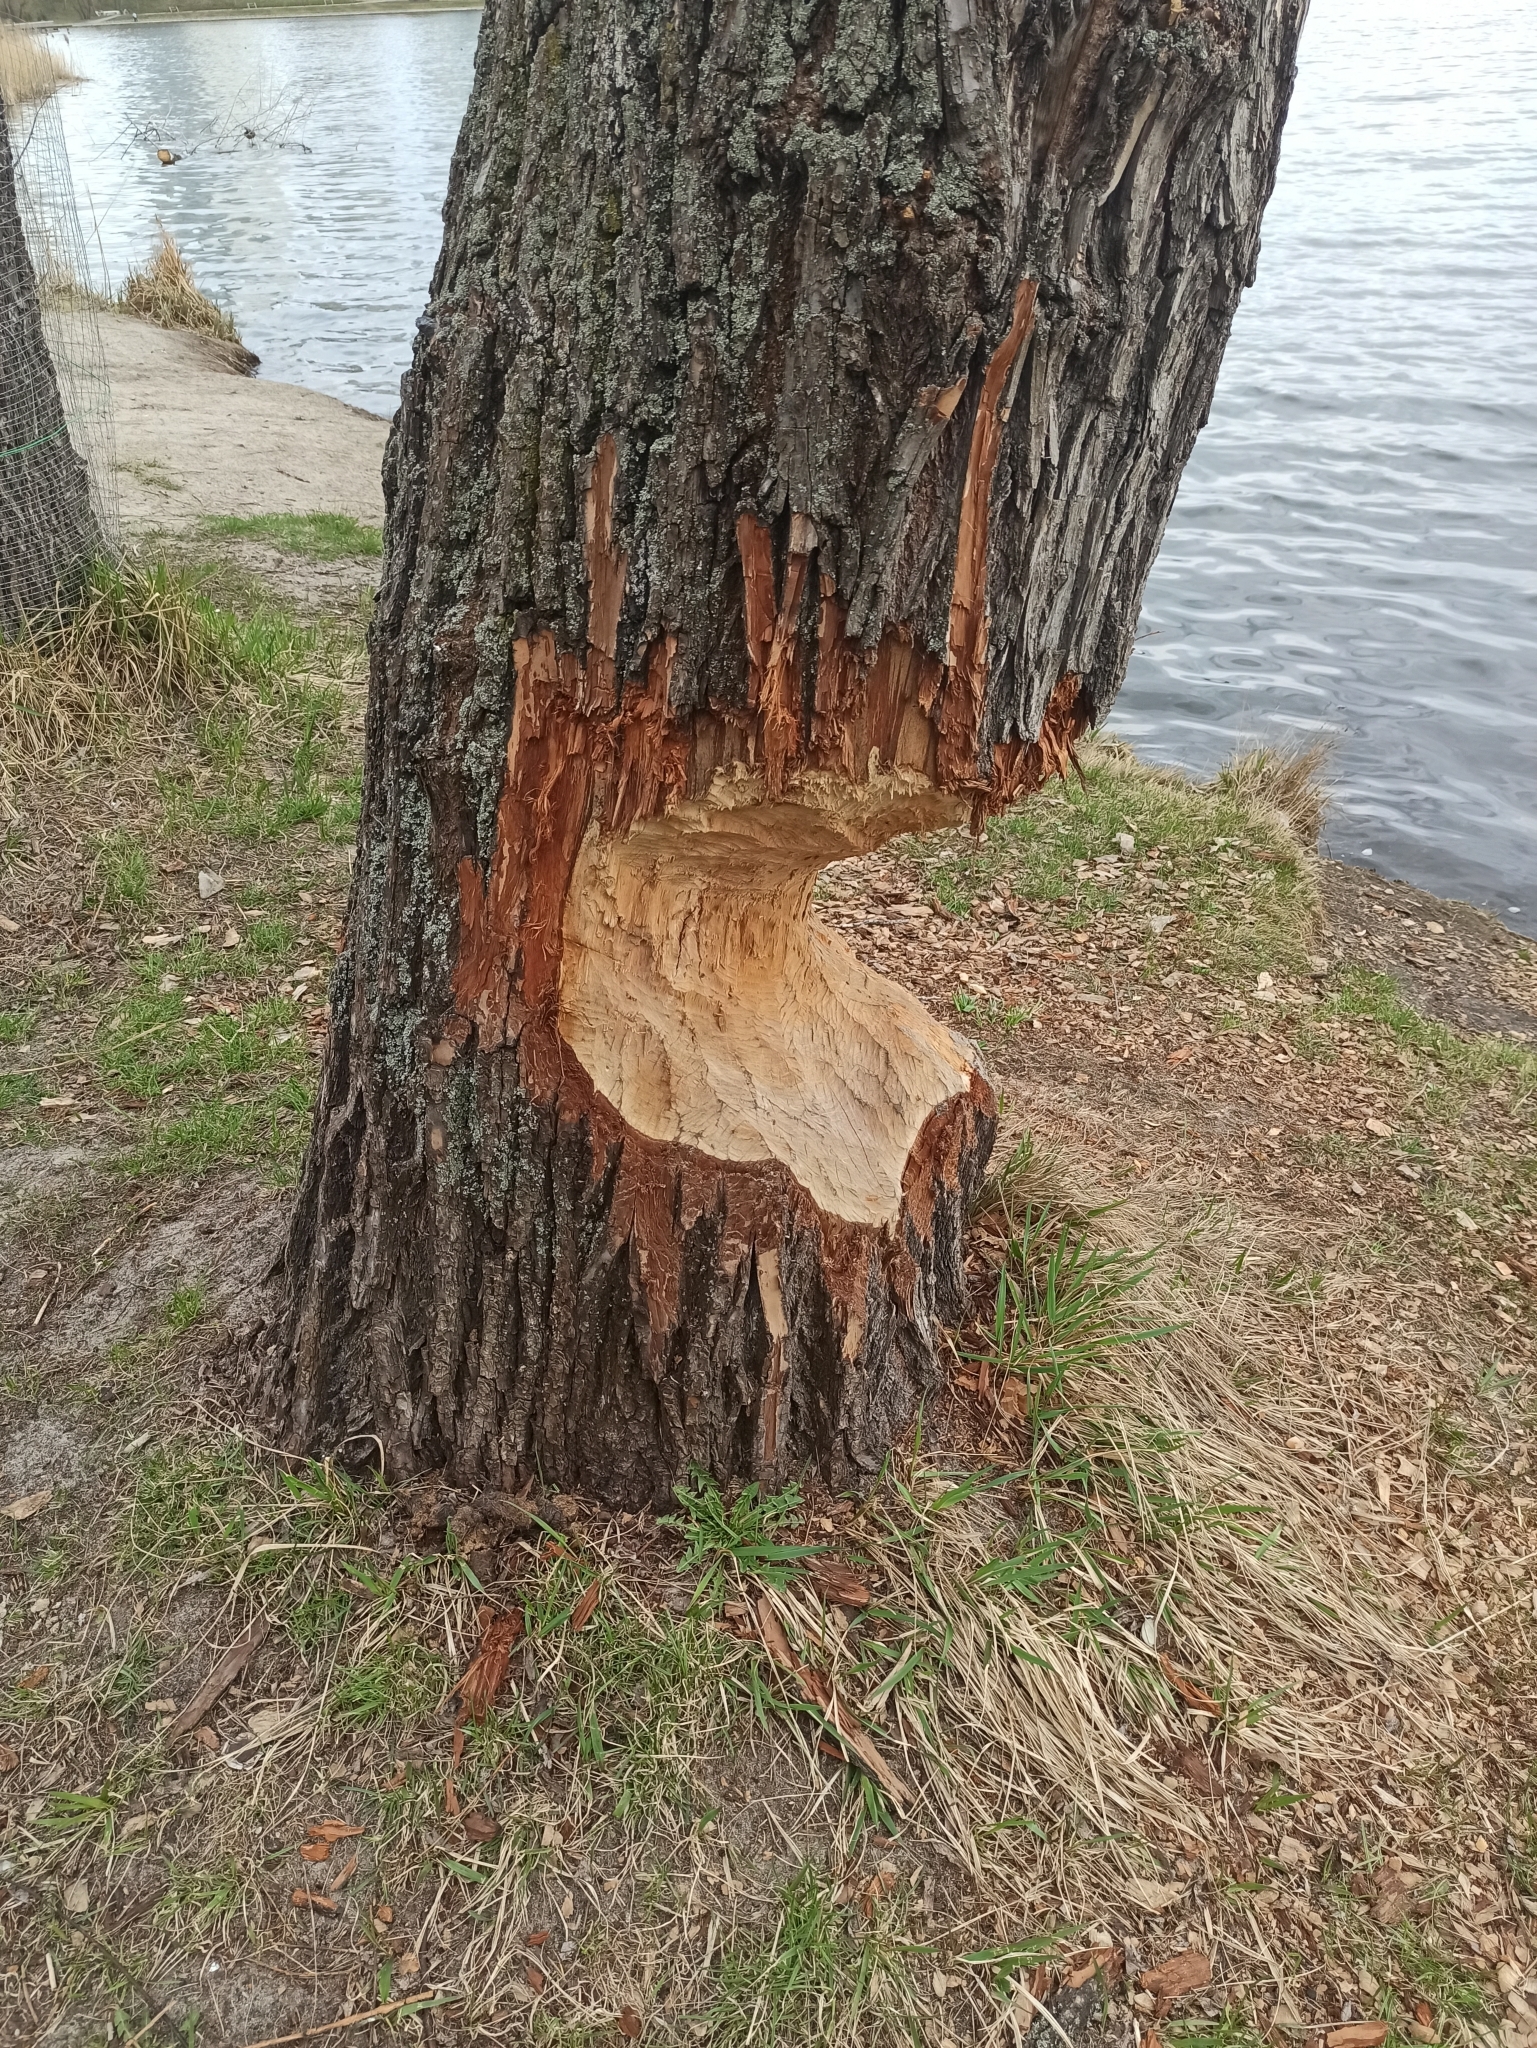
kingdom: Animalia
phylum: Chordata
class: Mammalia
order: Rodentia
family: Castoridae
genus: Castor
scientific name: Castor fiber
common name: Eurasian beaver
